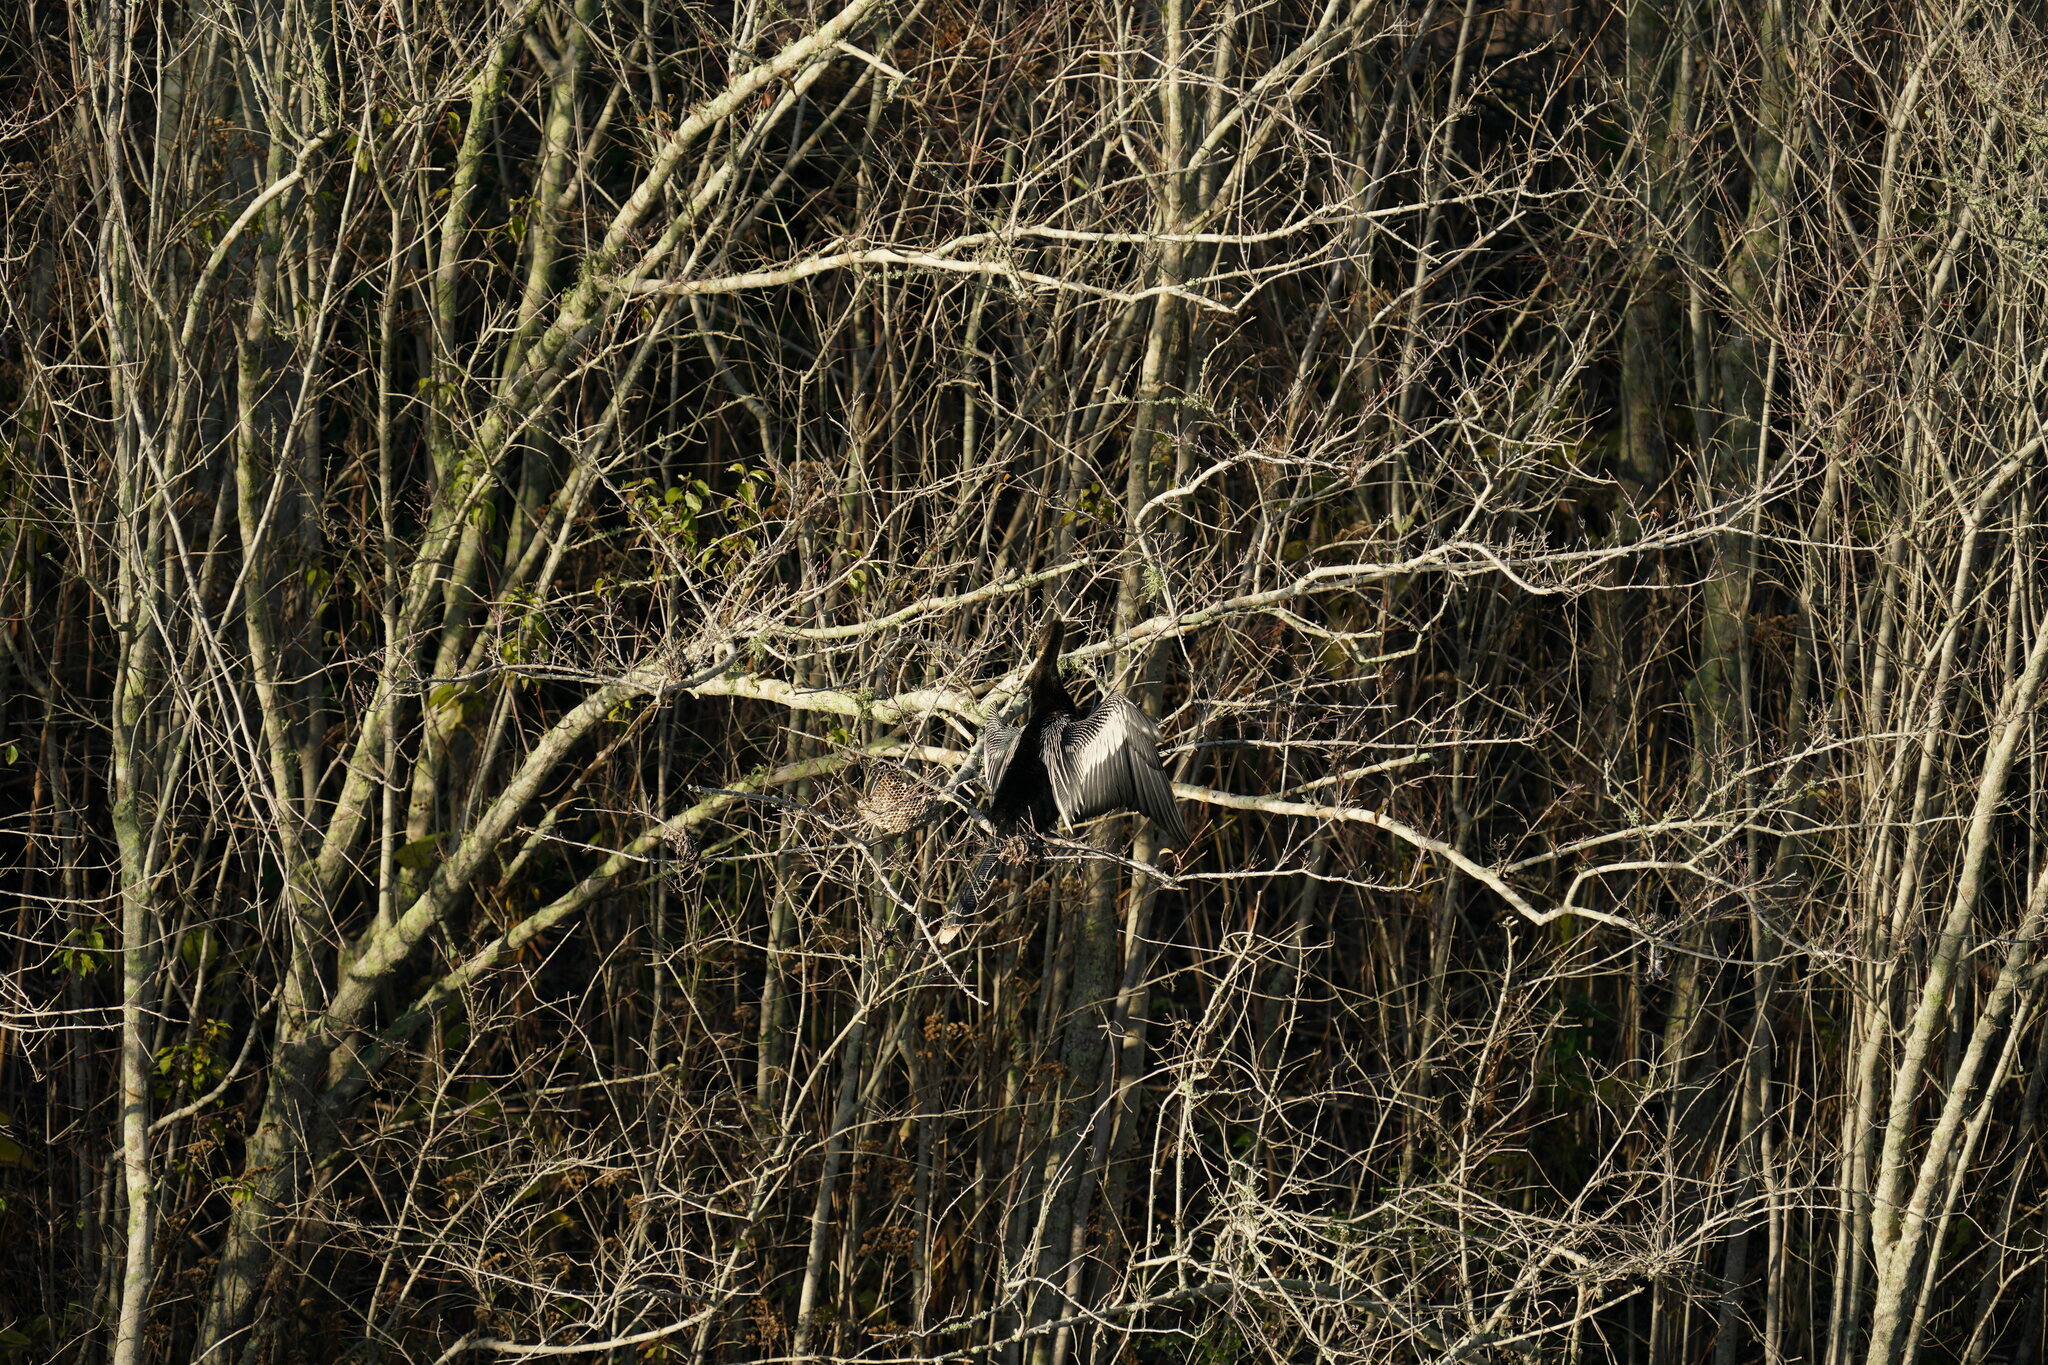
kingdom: Animalia
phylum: Chordata
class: Aves
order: Suliformes
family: Anhingidae
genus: Anhinga
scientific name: Anhinga anhinga
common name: Anhinga
